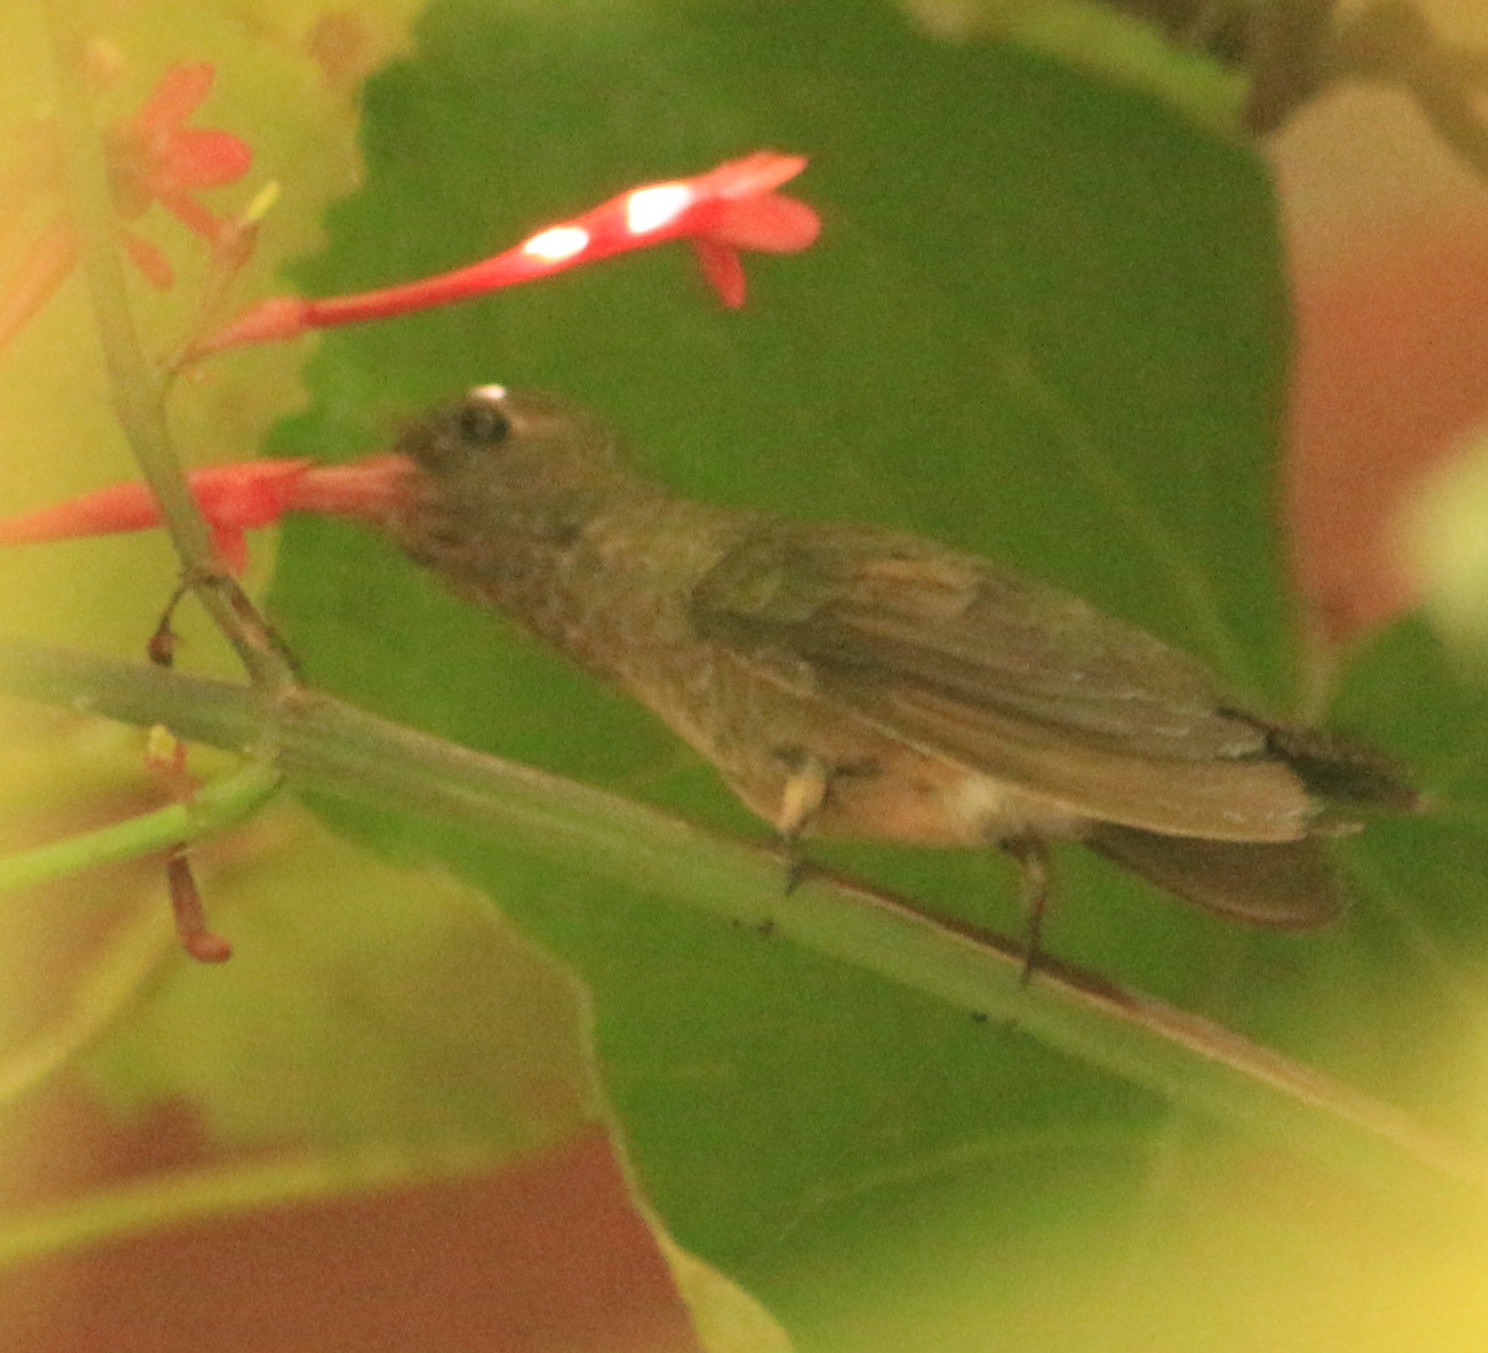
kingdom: Animalia
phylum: Chordata
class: Aves
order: Apodiformes
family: Trochilidae
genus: Hylocharis
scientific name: Hylocharis chrysura
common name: Gilded sapphire
